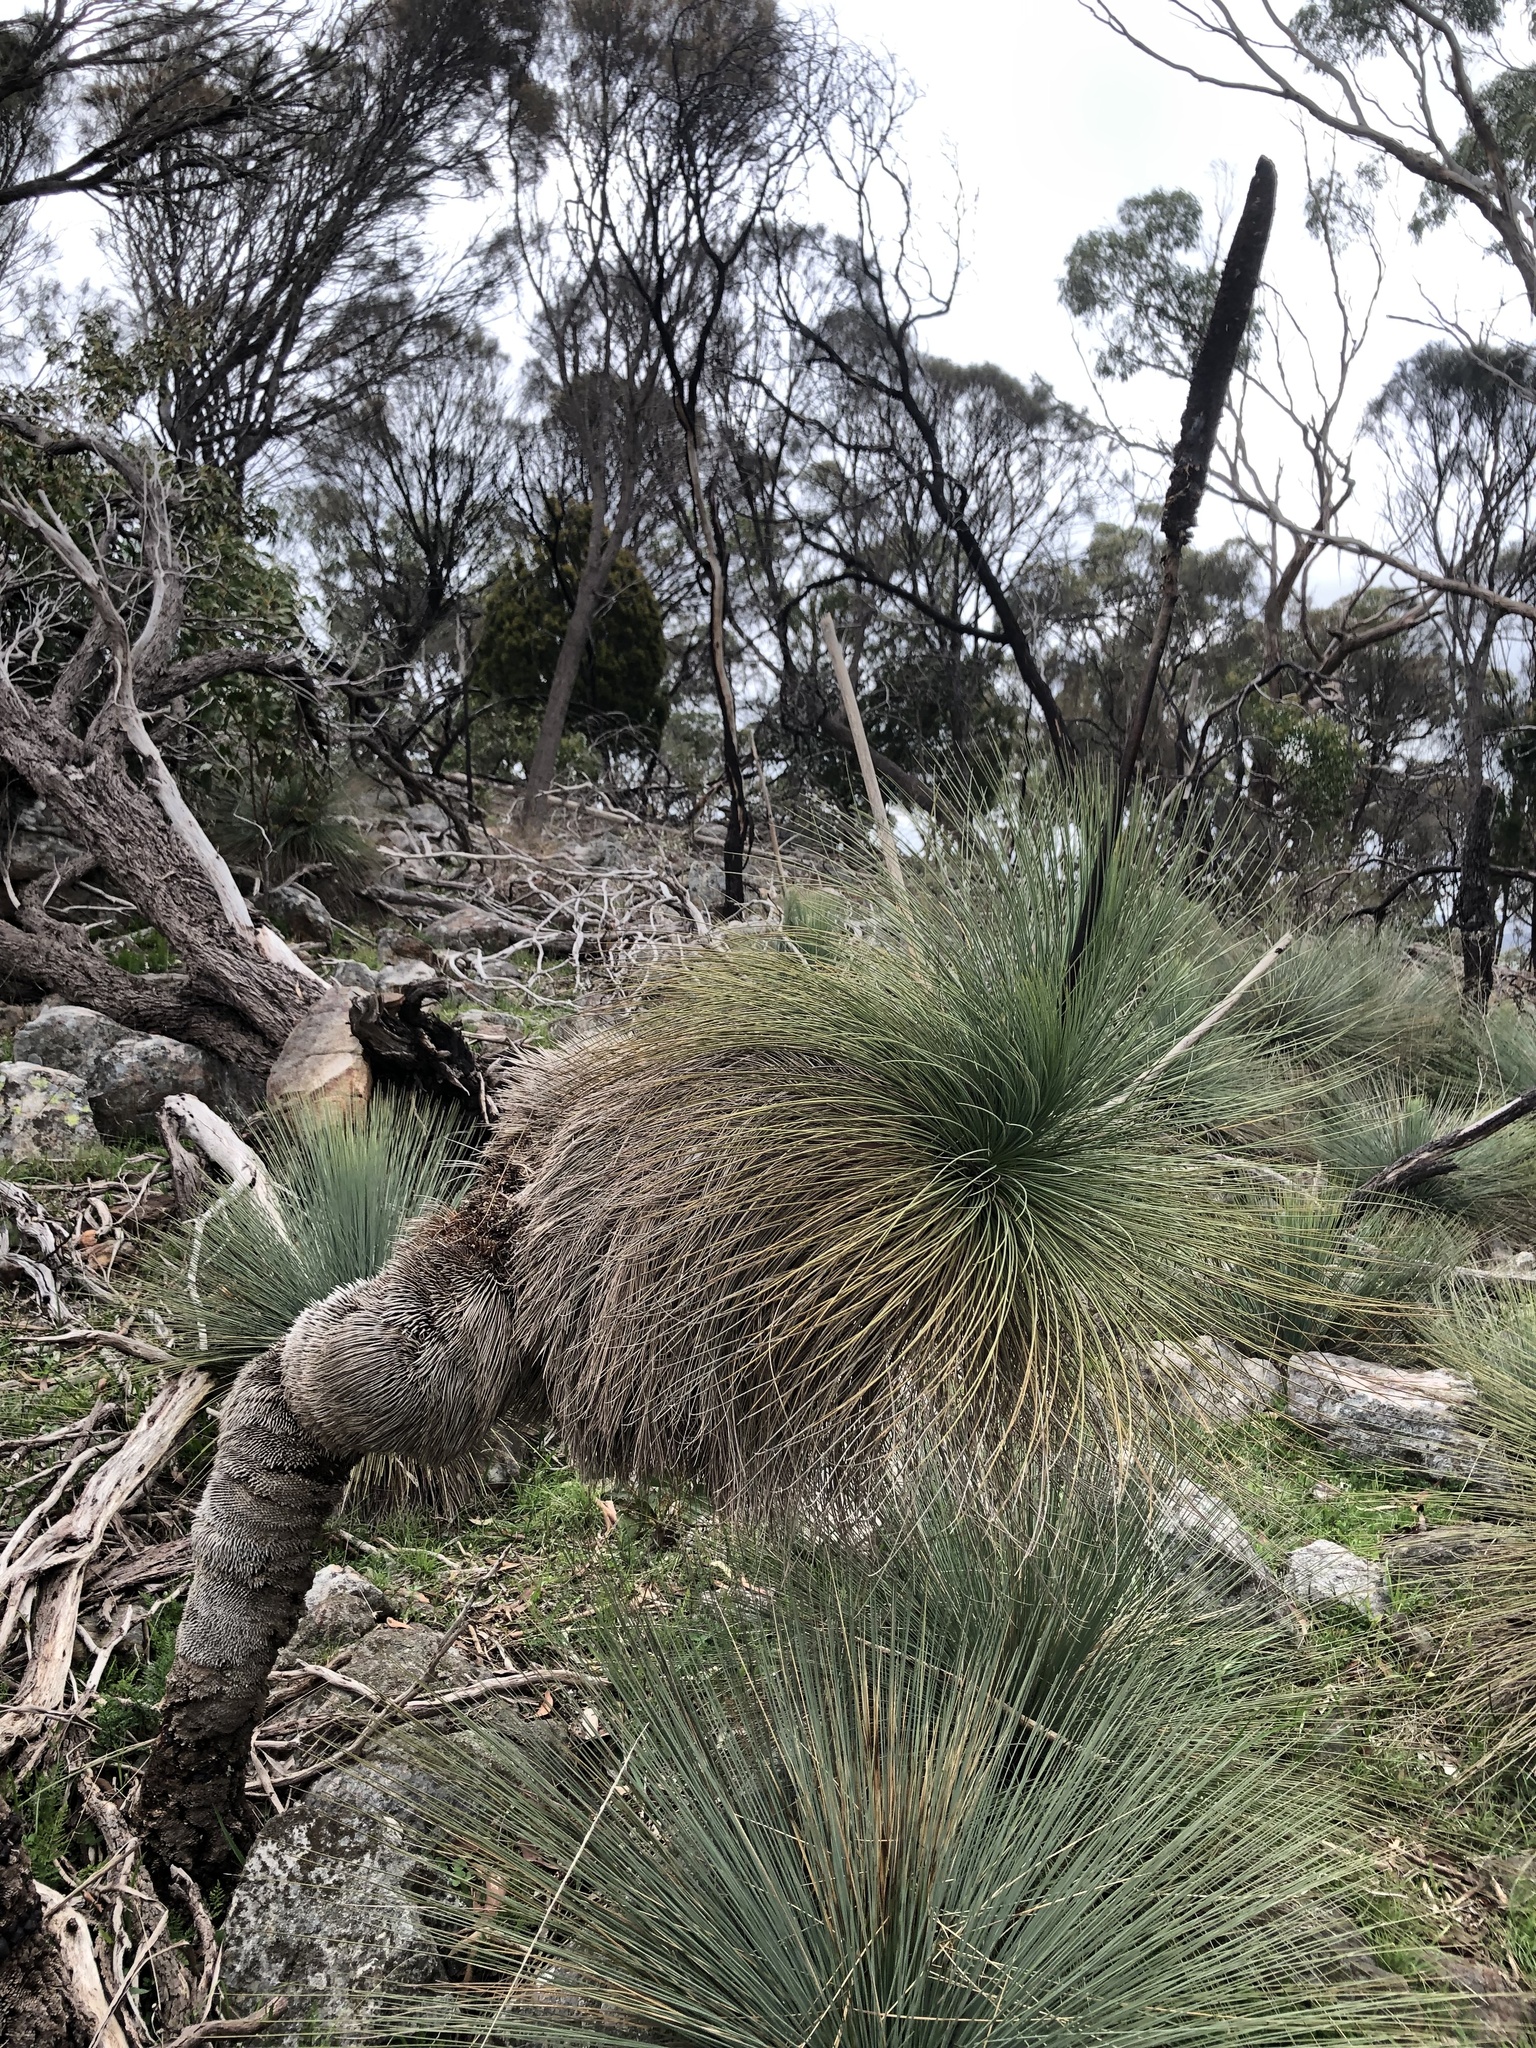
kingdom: Plantae
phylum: Tracheophyta
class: Liliopsida
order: Asparagales
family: Asphodelaceae
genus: Xanthorrhoea
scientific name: Xanthorrhoea quadrangulata
